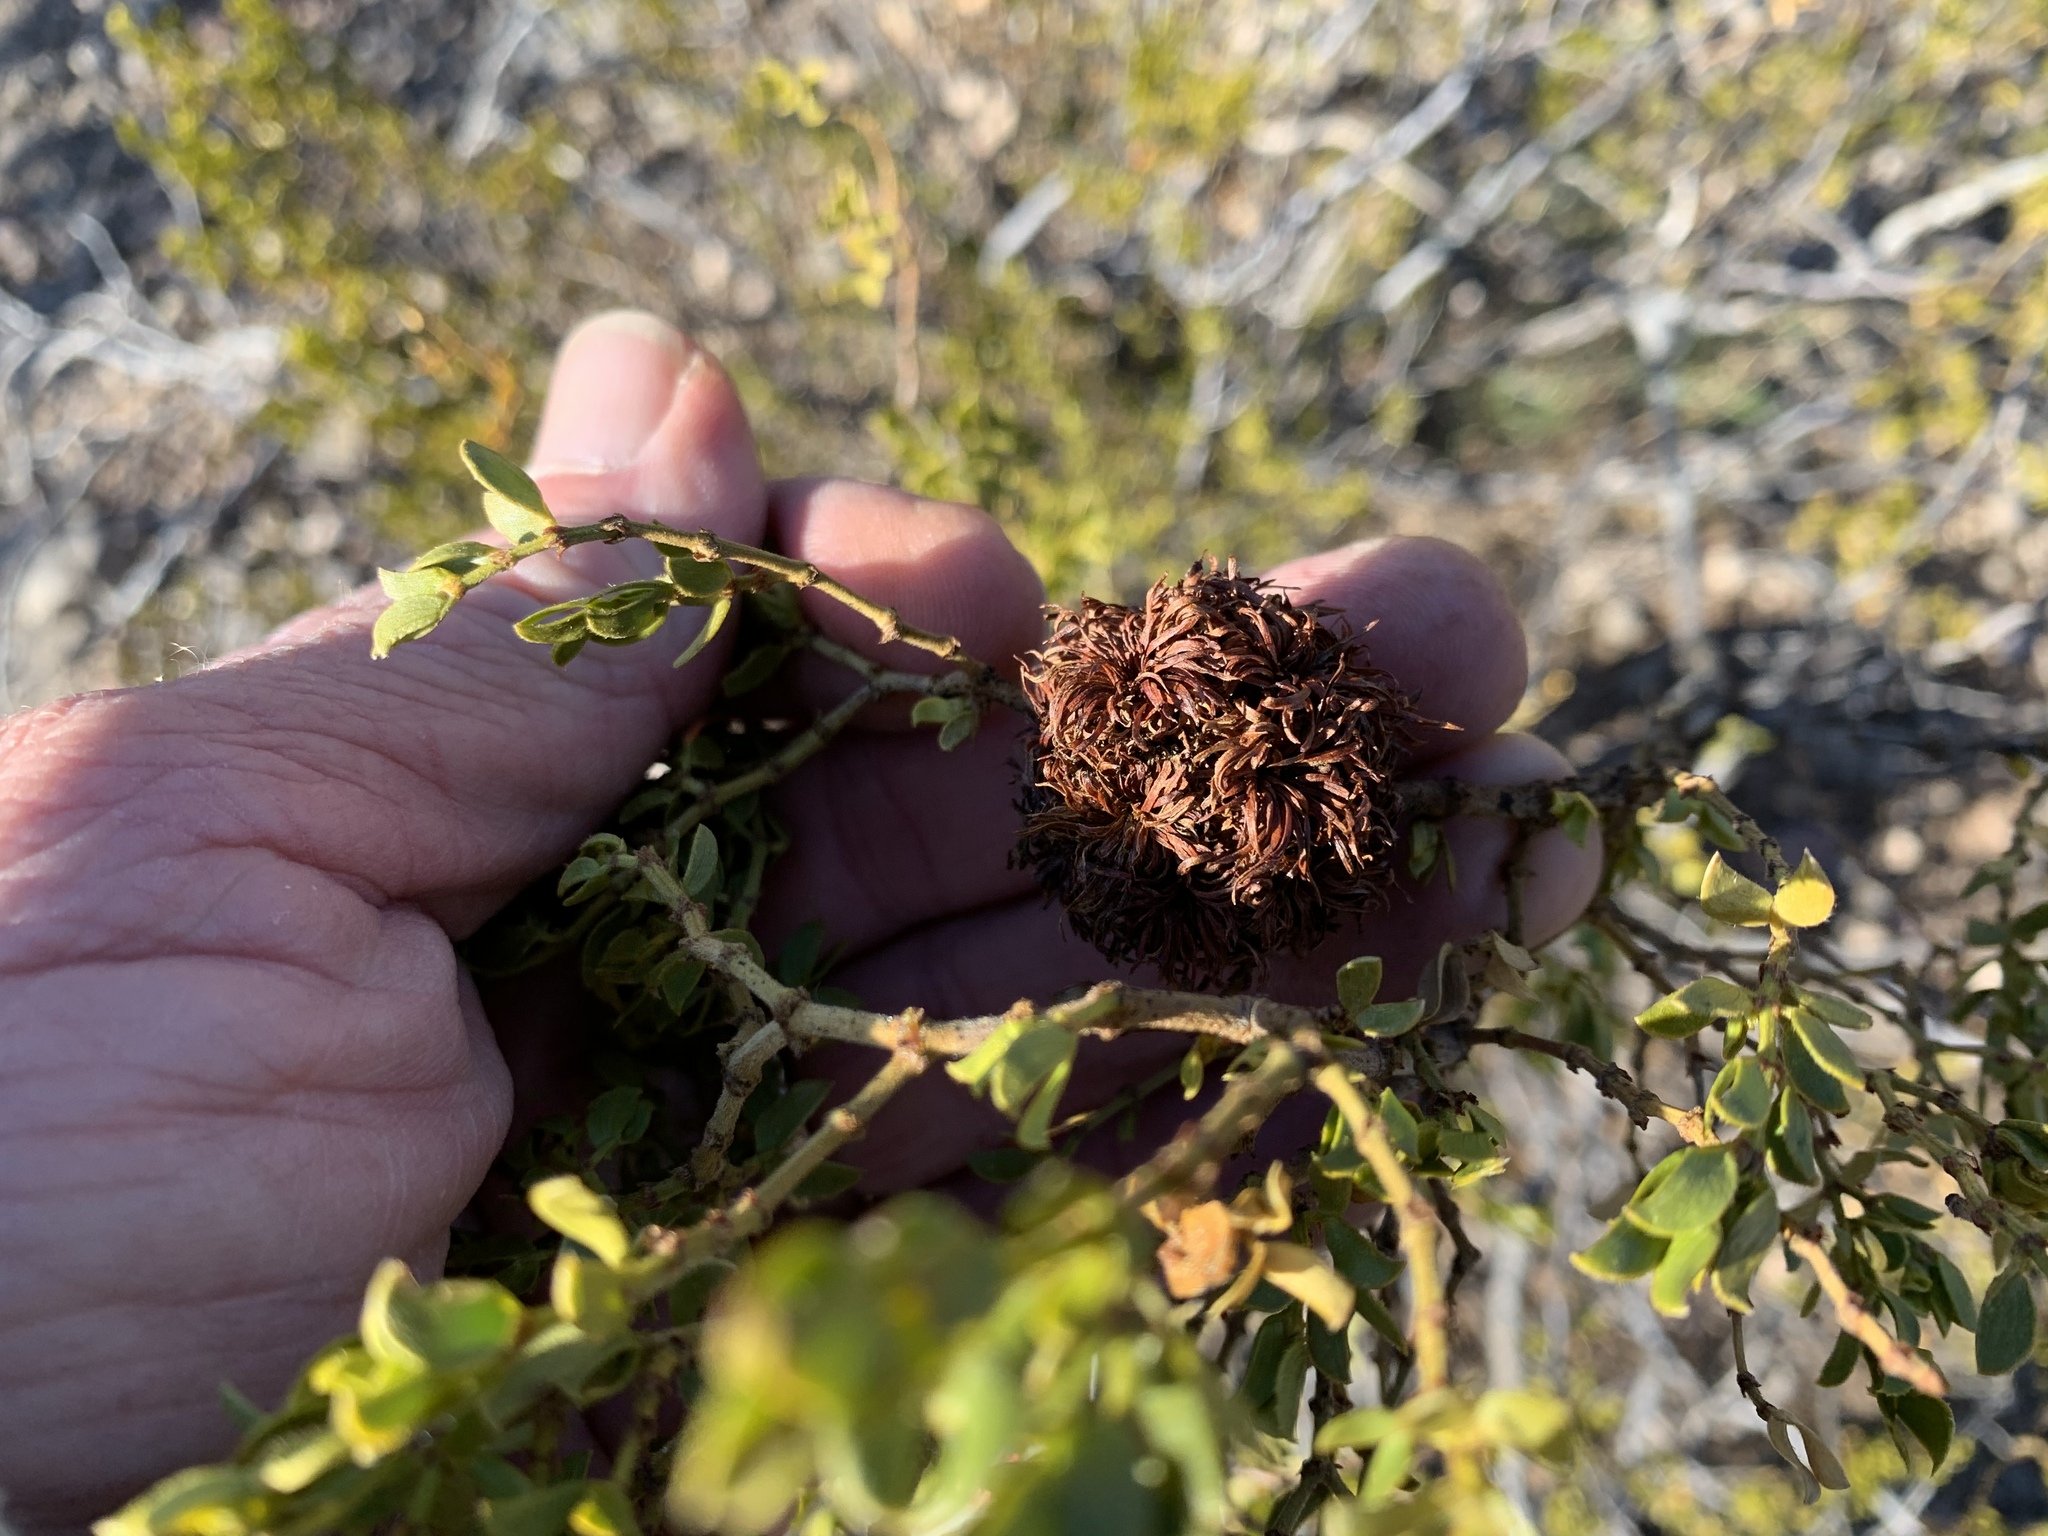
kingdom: Animalia
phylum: Arthropoda
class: Insecta
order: Diptera
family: Cecidomyiidae
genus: Asphondylia
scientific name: Asphondylia auripila
